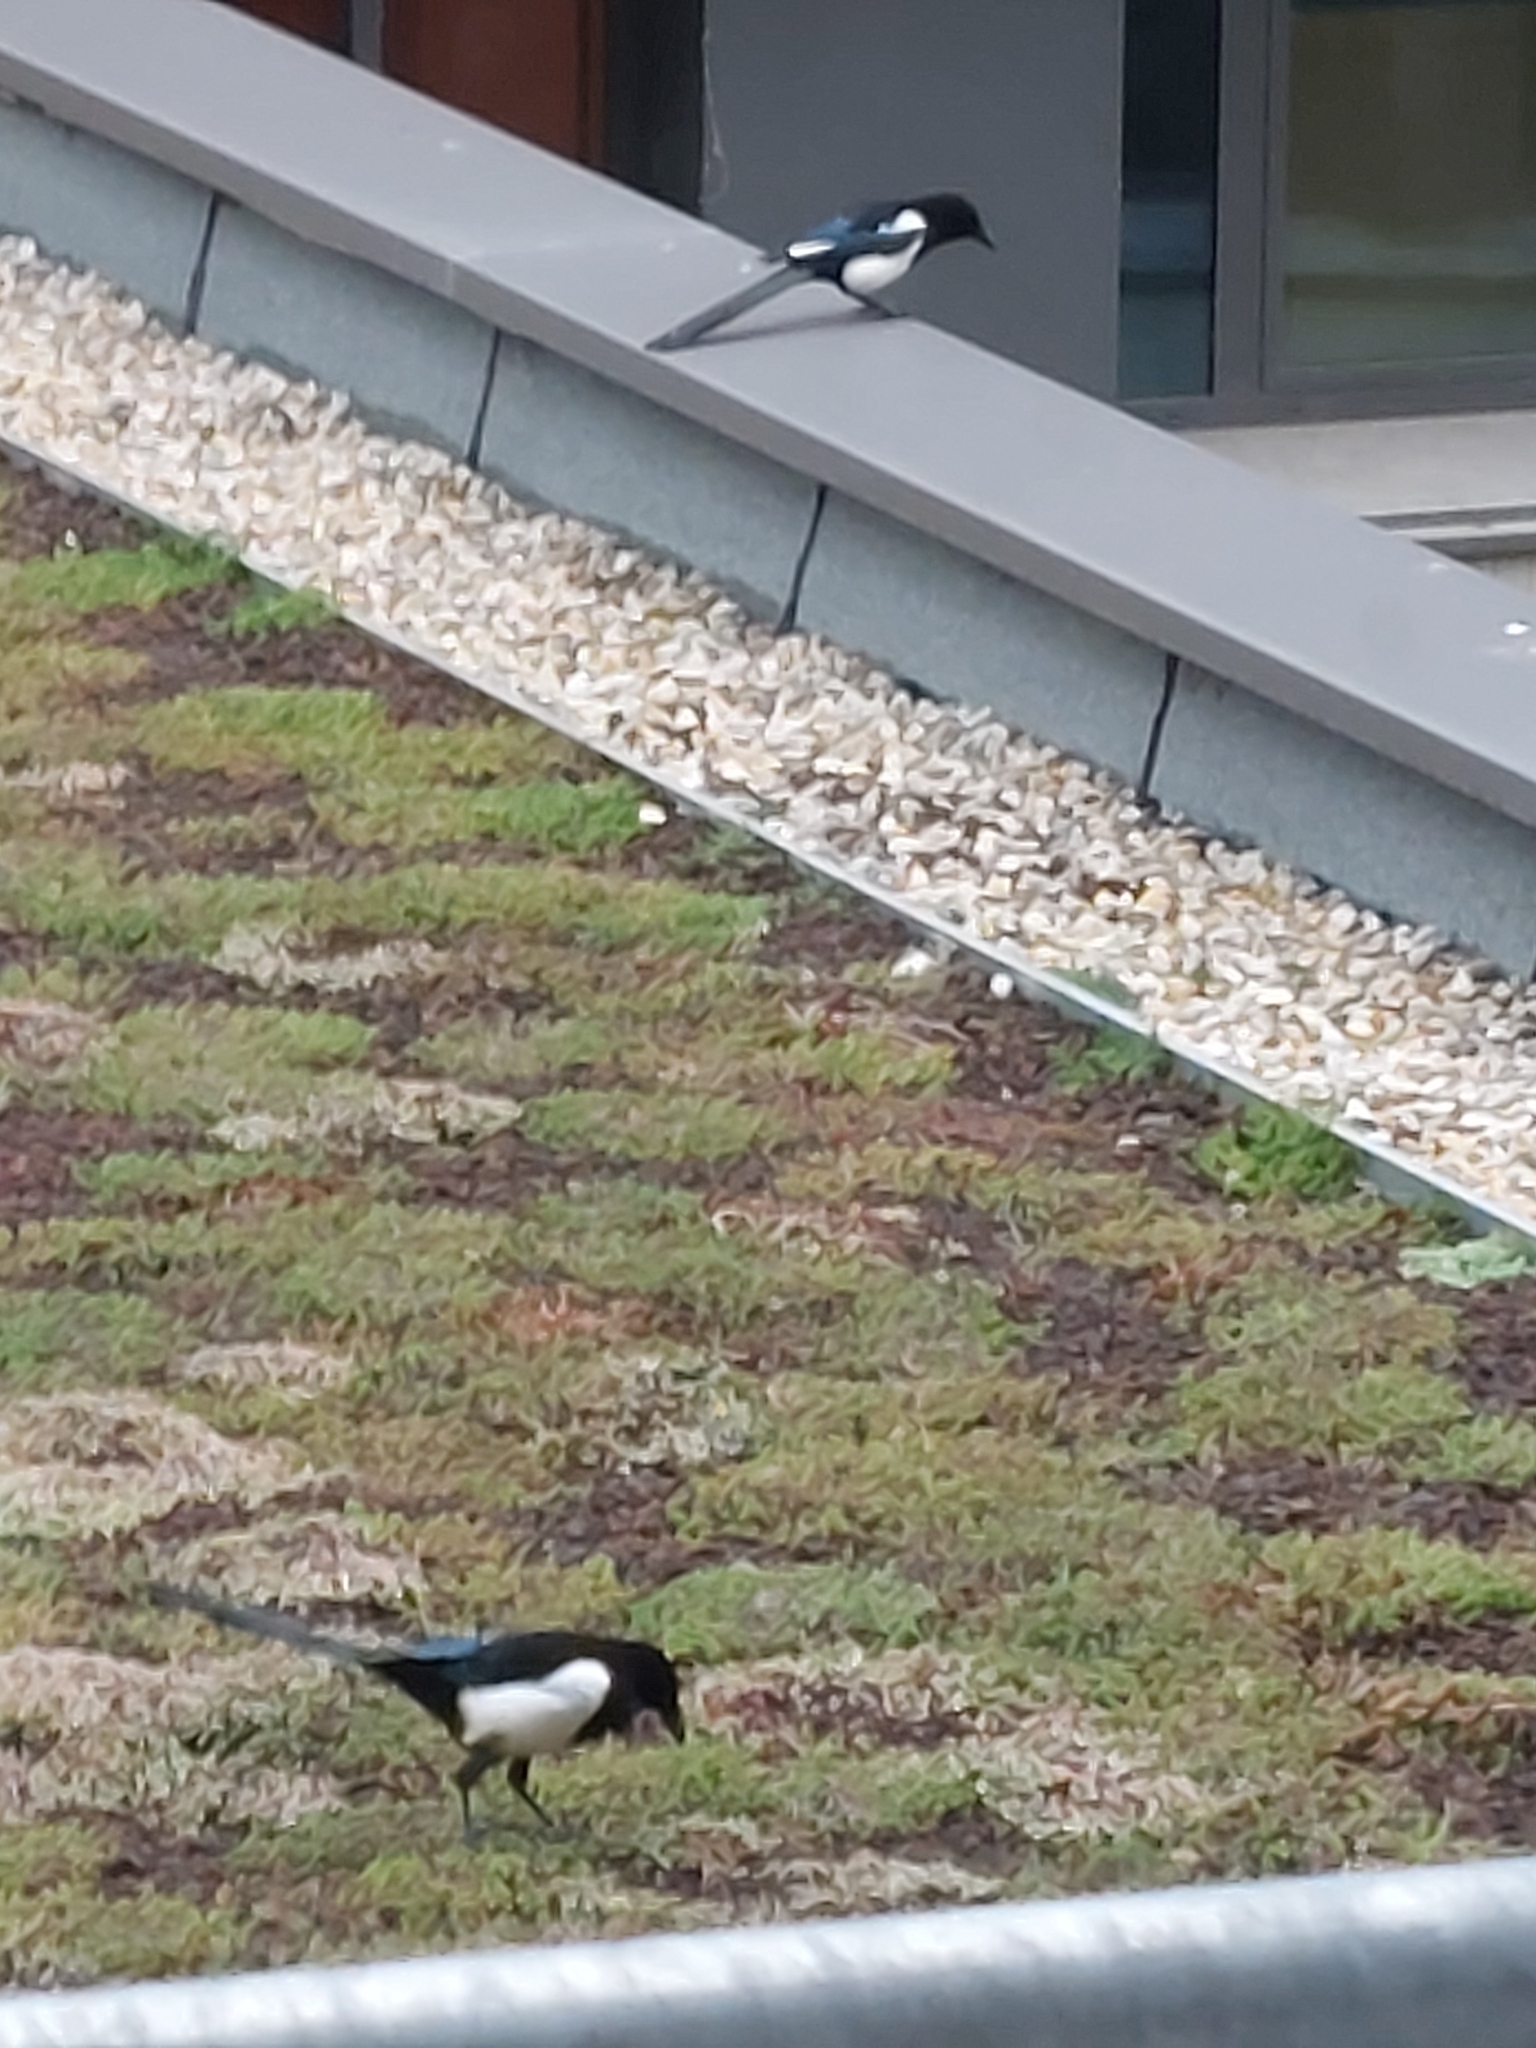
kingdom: Animalia
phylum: Chordata
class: Aves
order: Passeriformes
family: Corvidae
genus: Pica
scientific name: Pica pica
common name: Eurasian magpie
